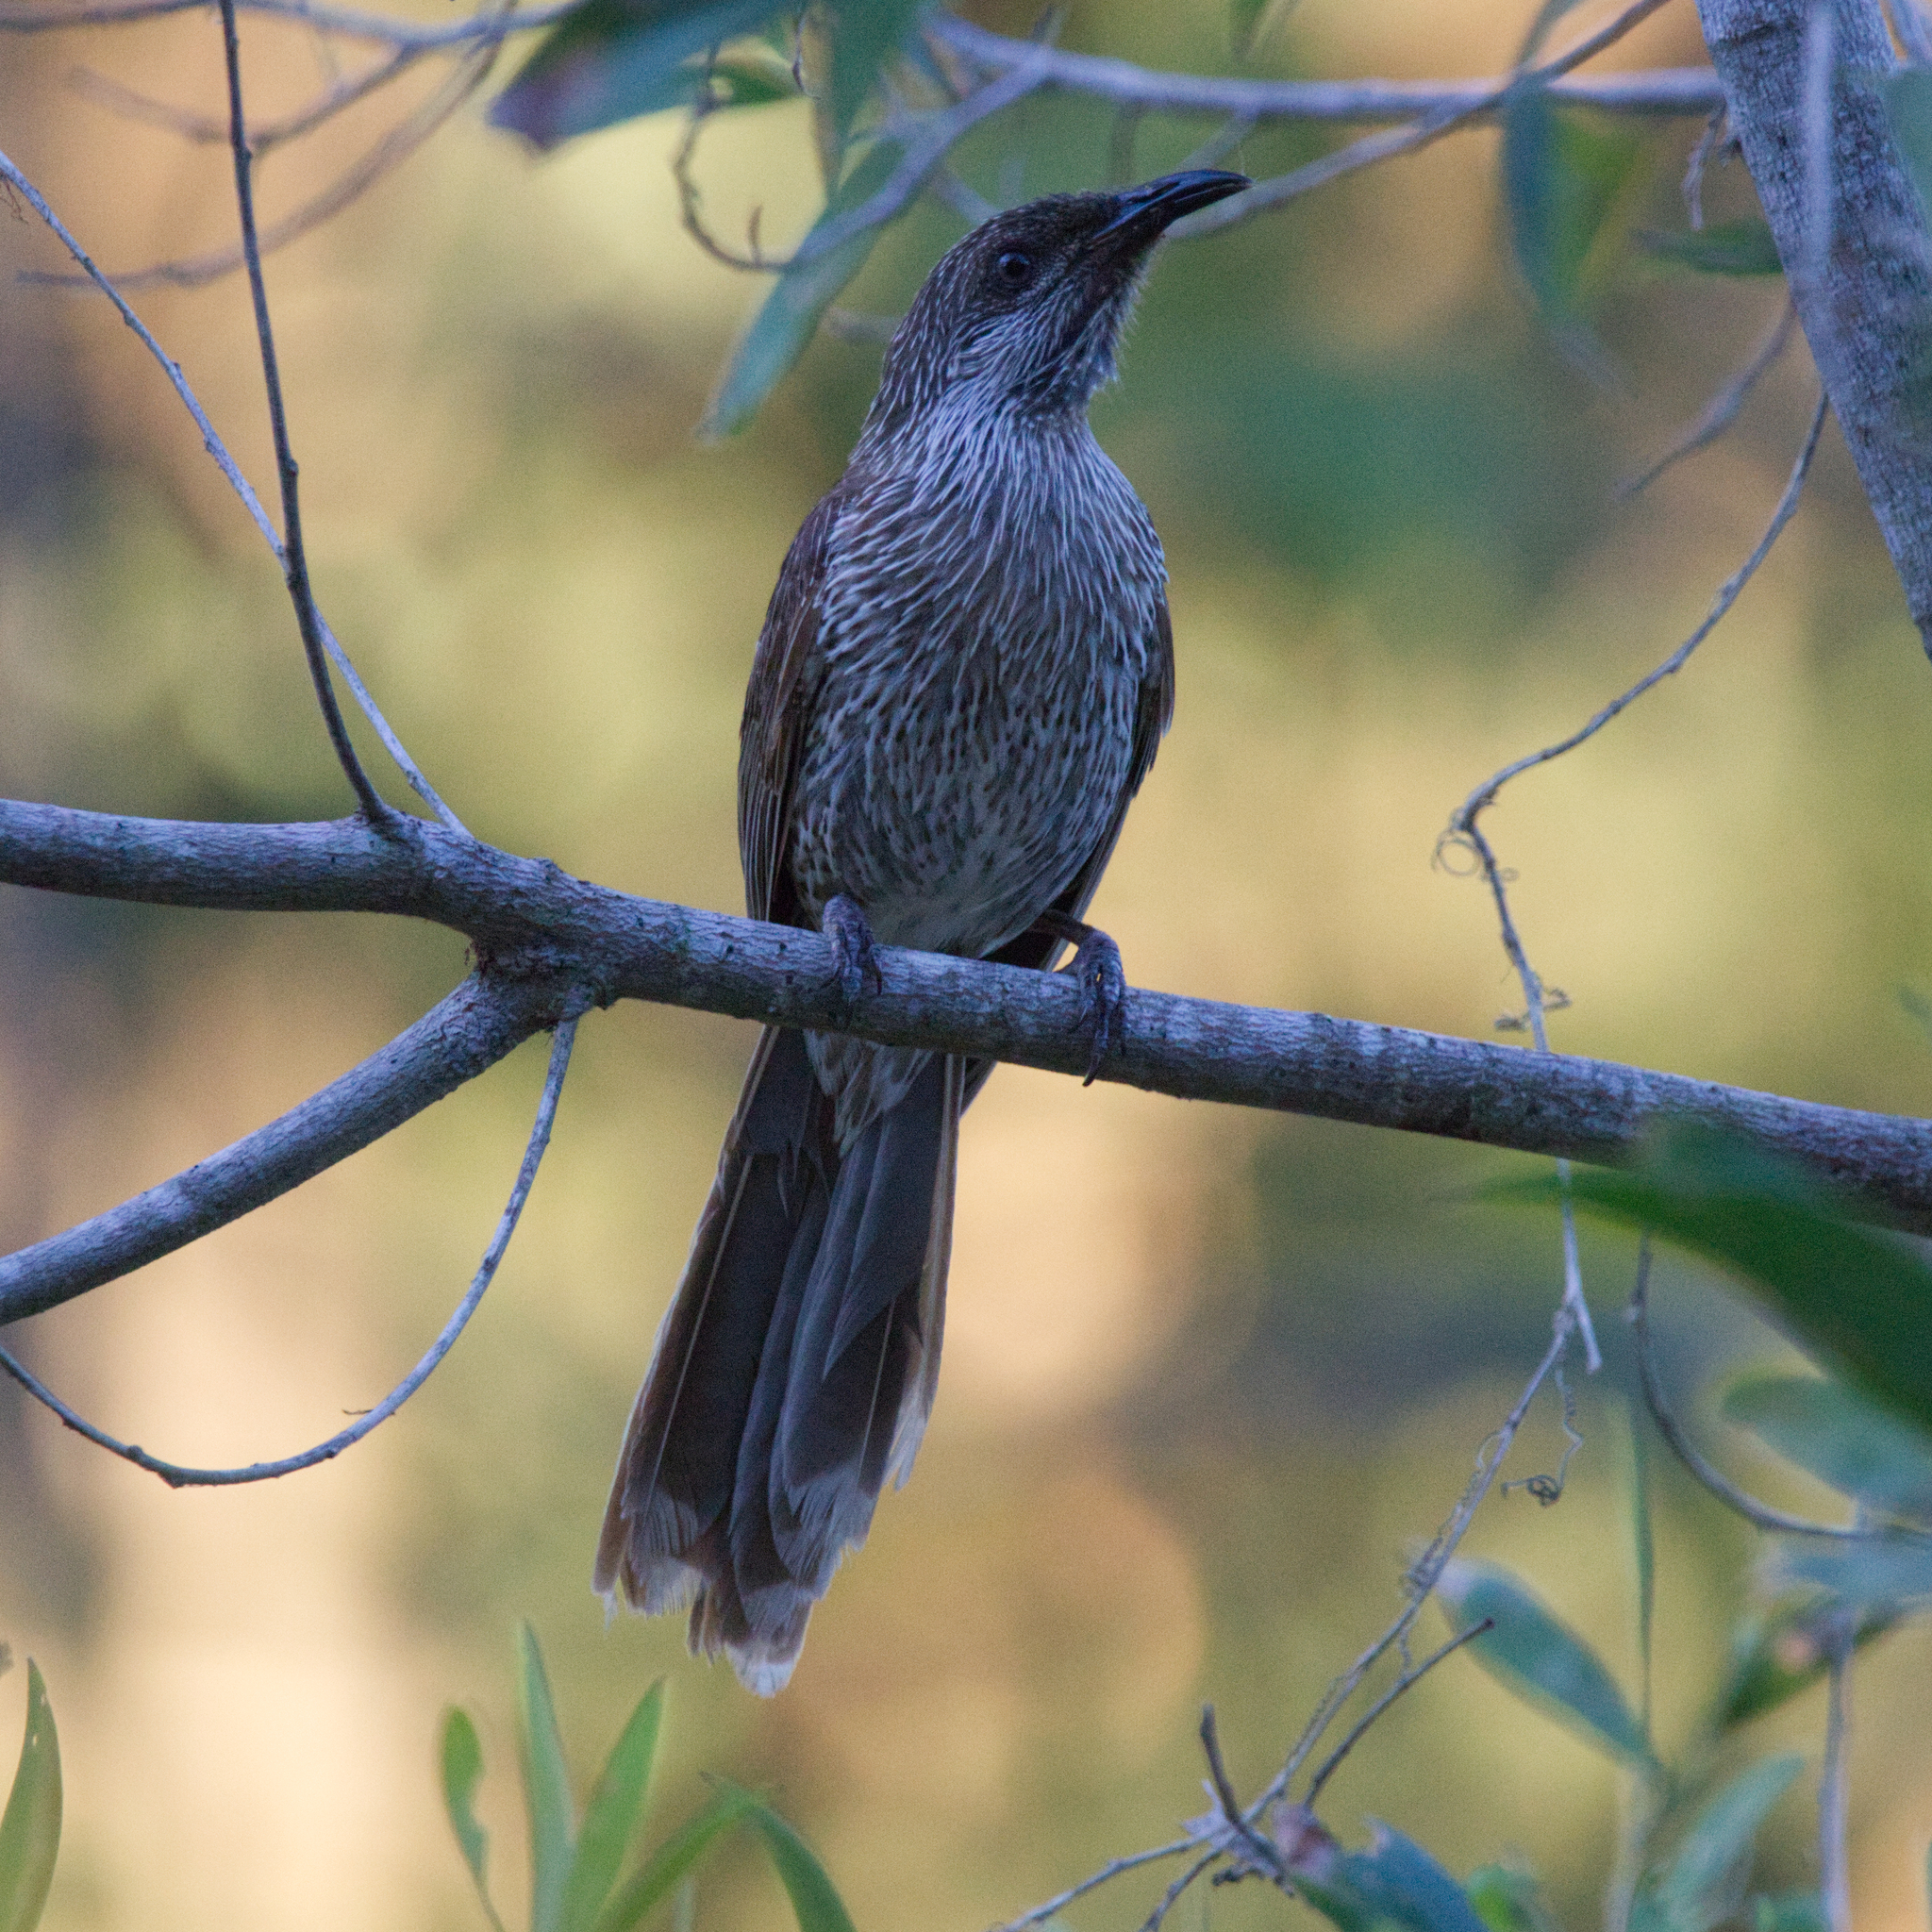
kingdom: Animalia
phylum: Chordata
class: Aves
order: Passeriformes
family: Meliphagidae
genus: Anthochaera
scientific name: Anthochaera chrysoptera
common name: Little wattlebird
